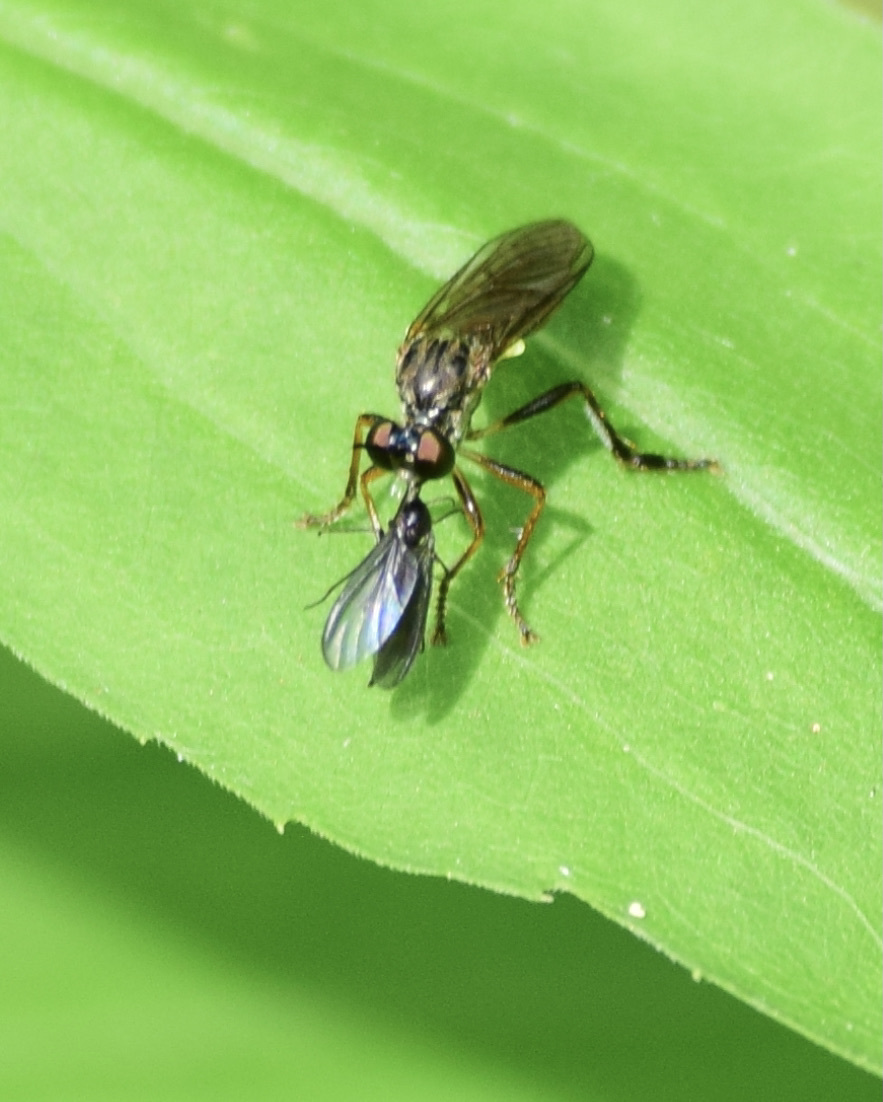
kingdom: Animalia
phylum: Arthropoda
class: Insecta
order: Diptera
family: Asilidae
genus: Dioctria
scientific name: Dioctria hyalipennis
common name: Stripe-legged robberfly
